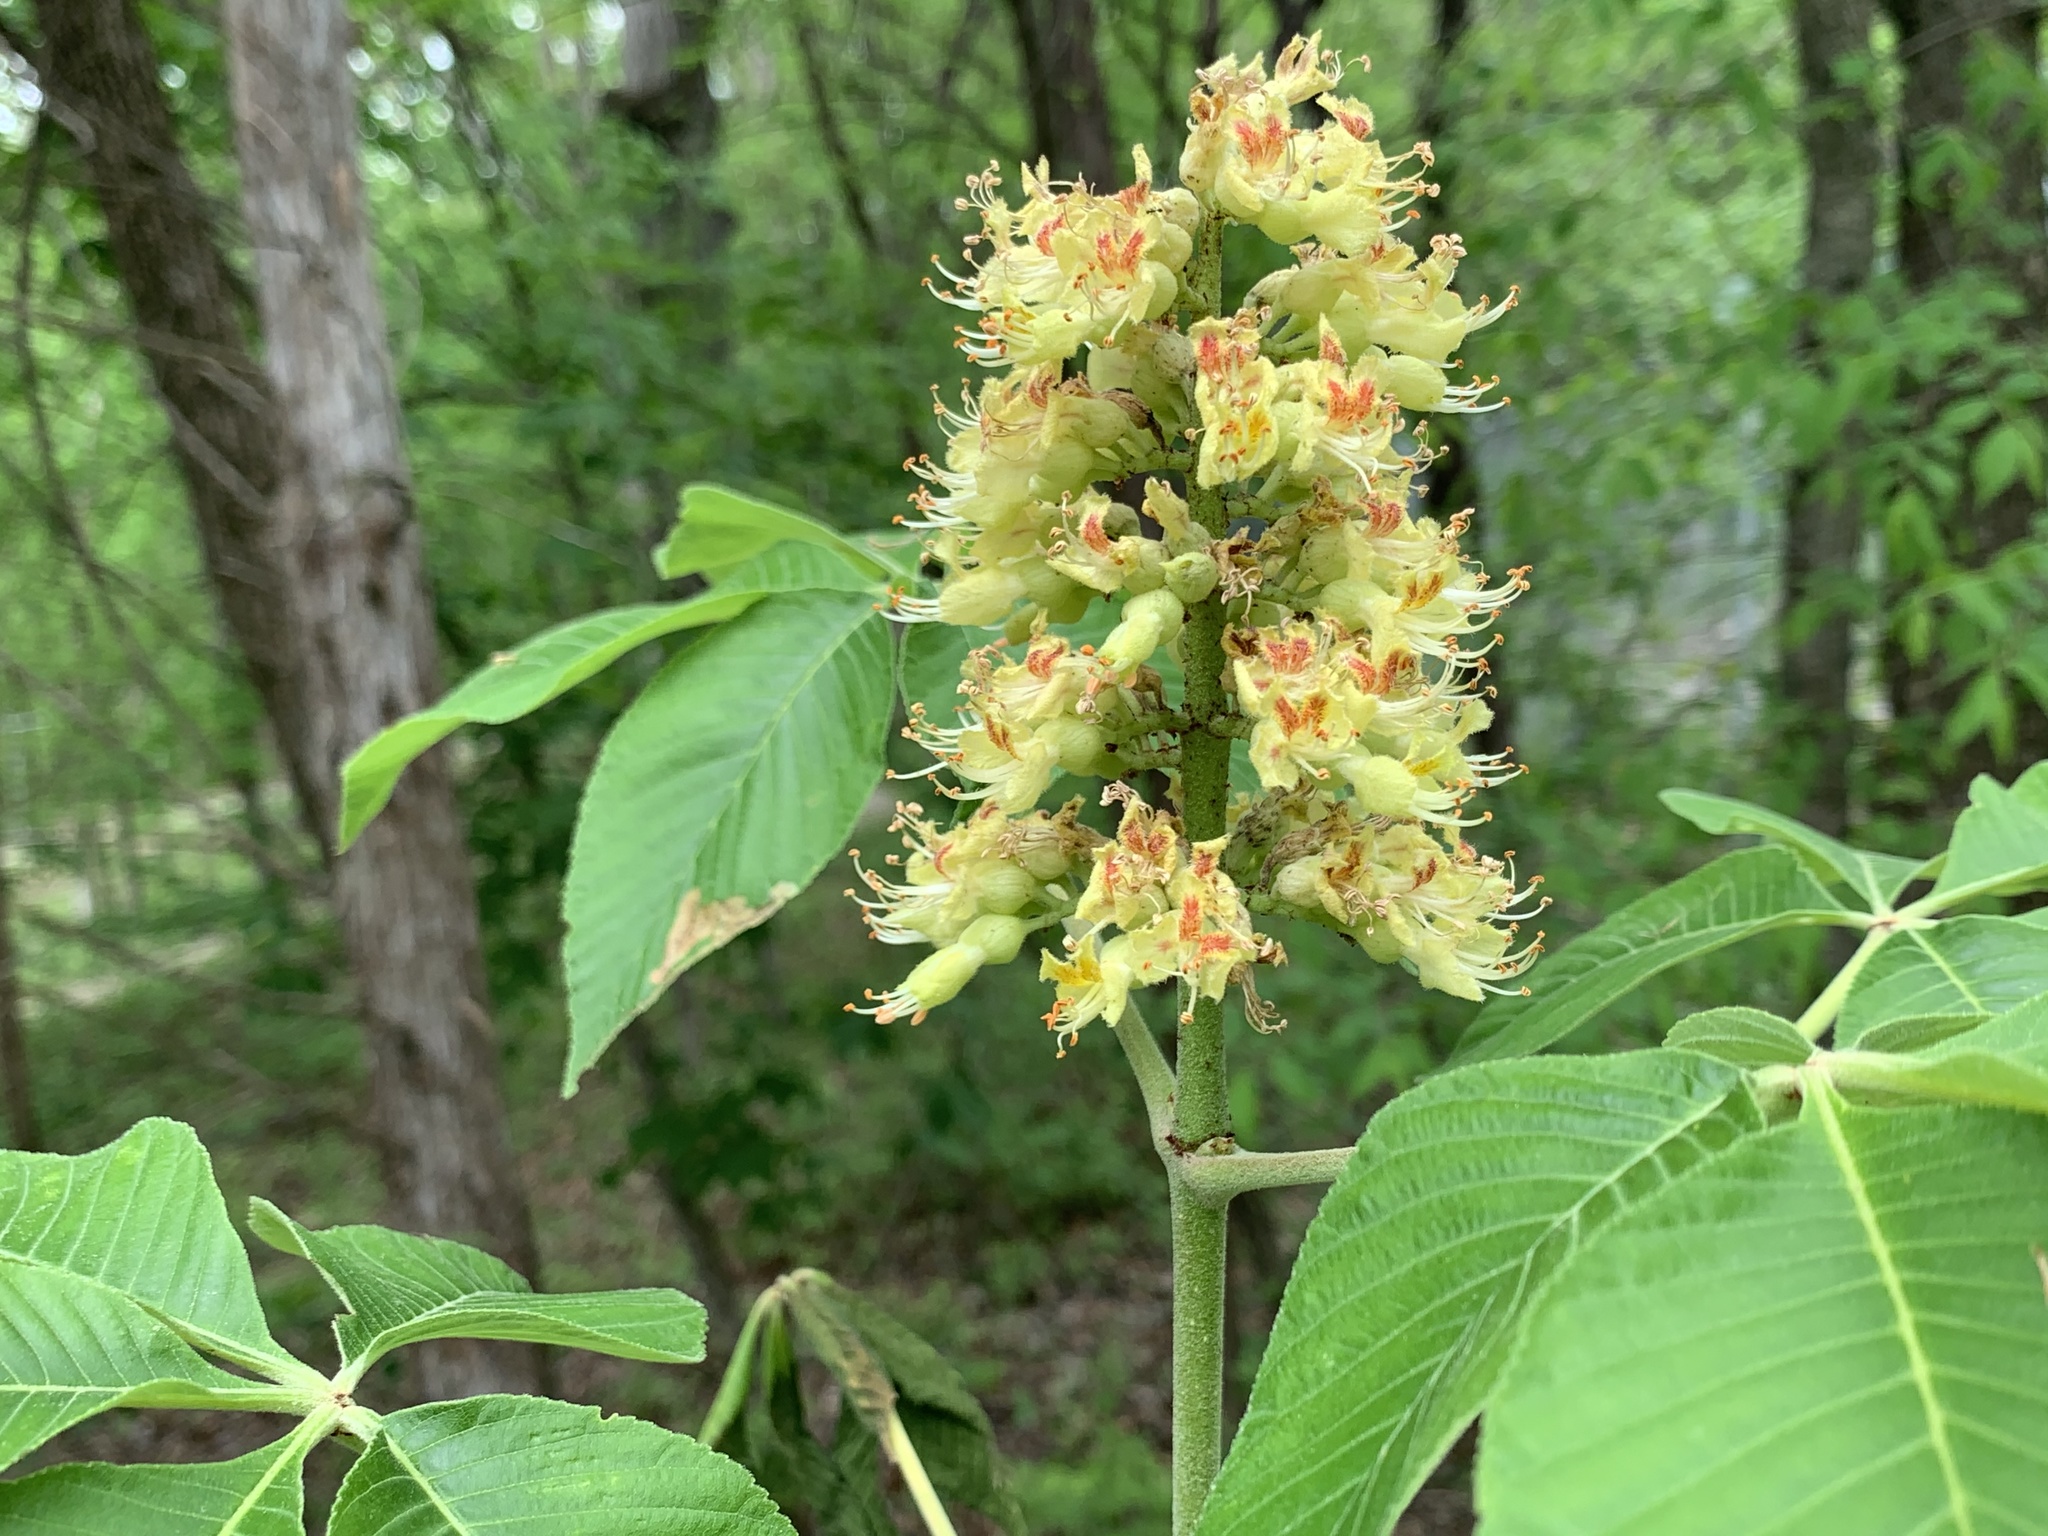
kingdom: Plantae
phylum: Tracheophyta
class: Magnoliopsida
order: Sapindales
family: Sapindaceae
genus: Aesculus
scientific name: Aesculus glabra
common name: Ohio buckeye
